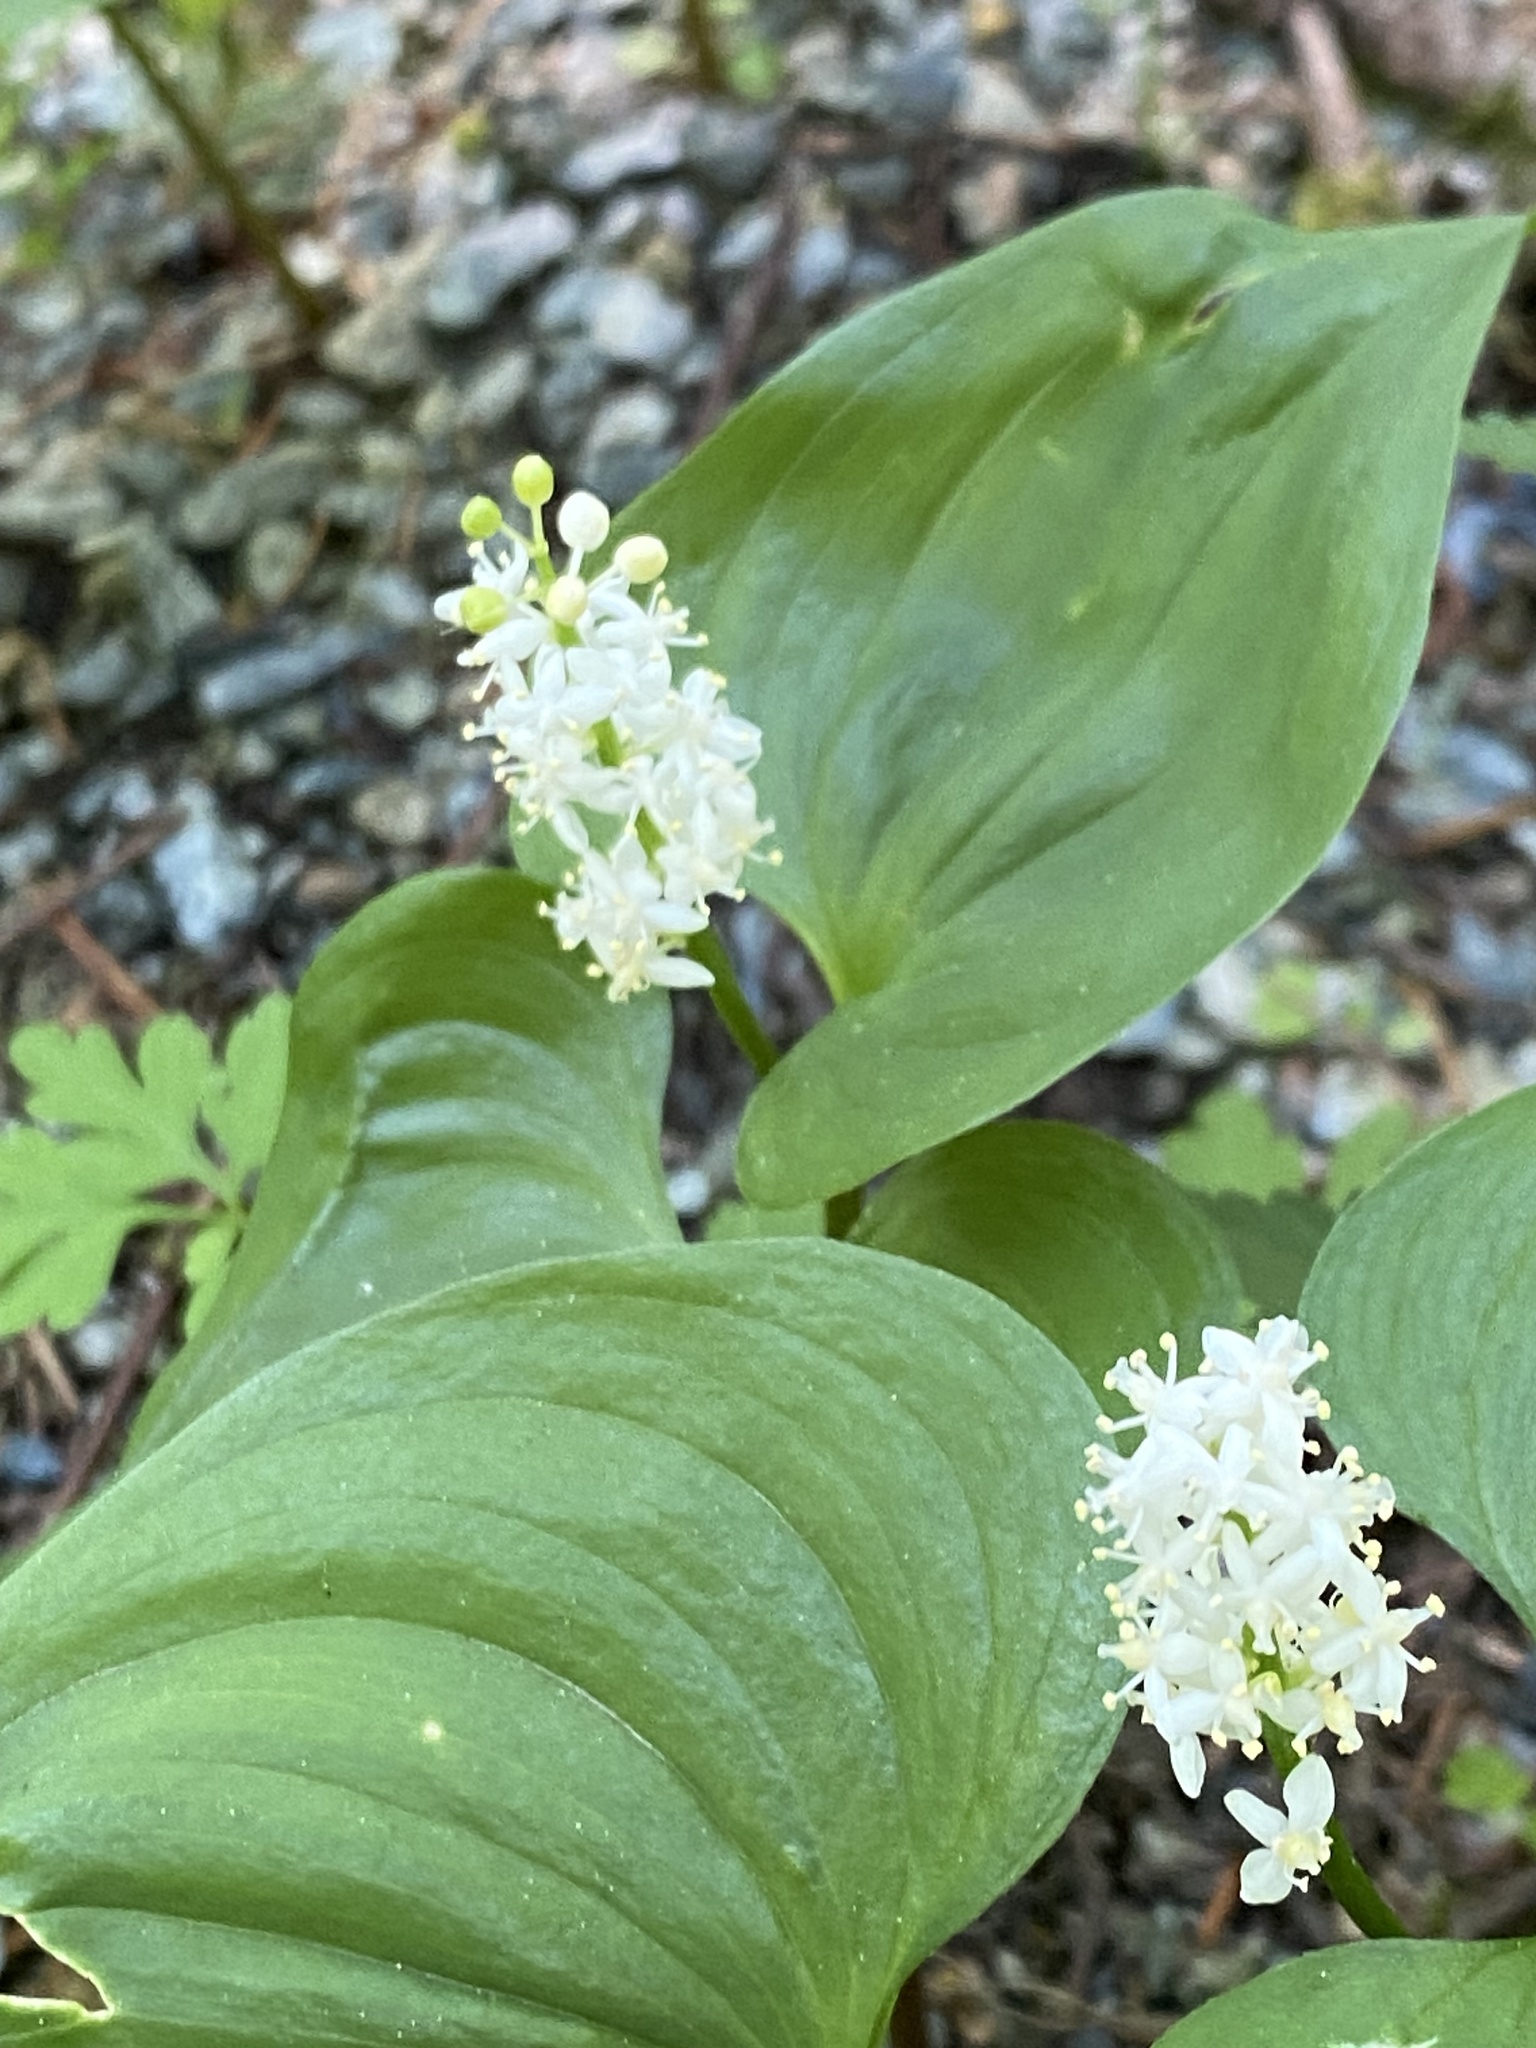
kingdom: Plantae
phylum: Tracheophyta
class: Liliopsida
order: Asparagales
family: Asparagaceae
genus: Maianthemum
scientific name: Maianthemum dilatatum
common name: False lily-of-the-valley
